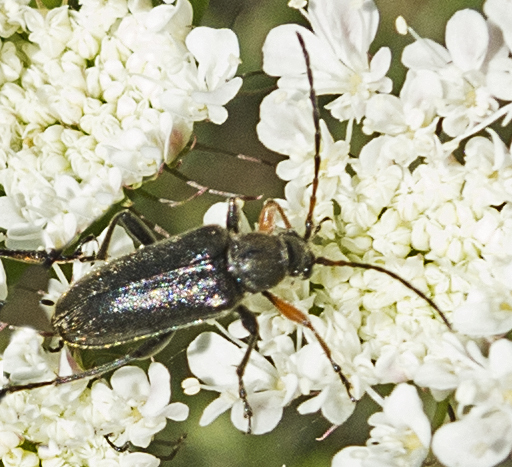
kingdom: Animalia
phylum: Arthropoda
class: Insecta
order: Coleoptera
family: Cerambycidae
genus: Cortodera
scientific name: Cortodera flavimana
